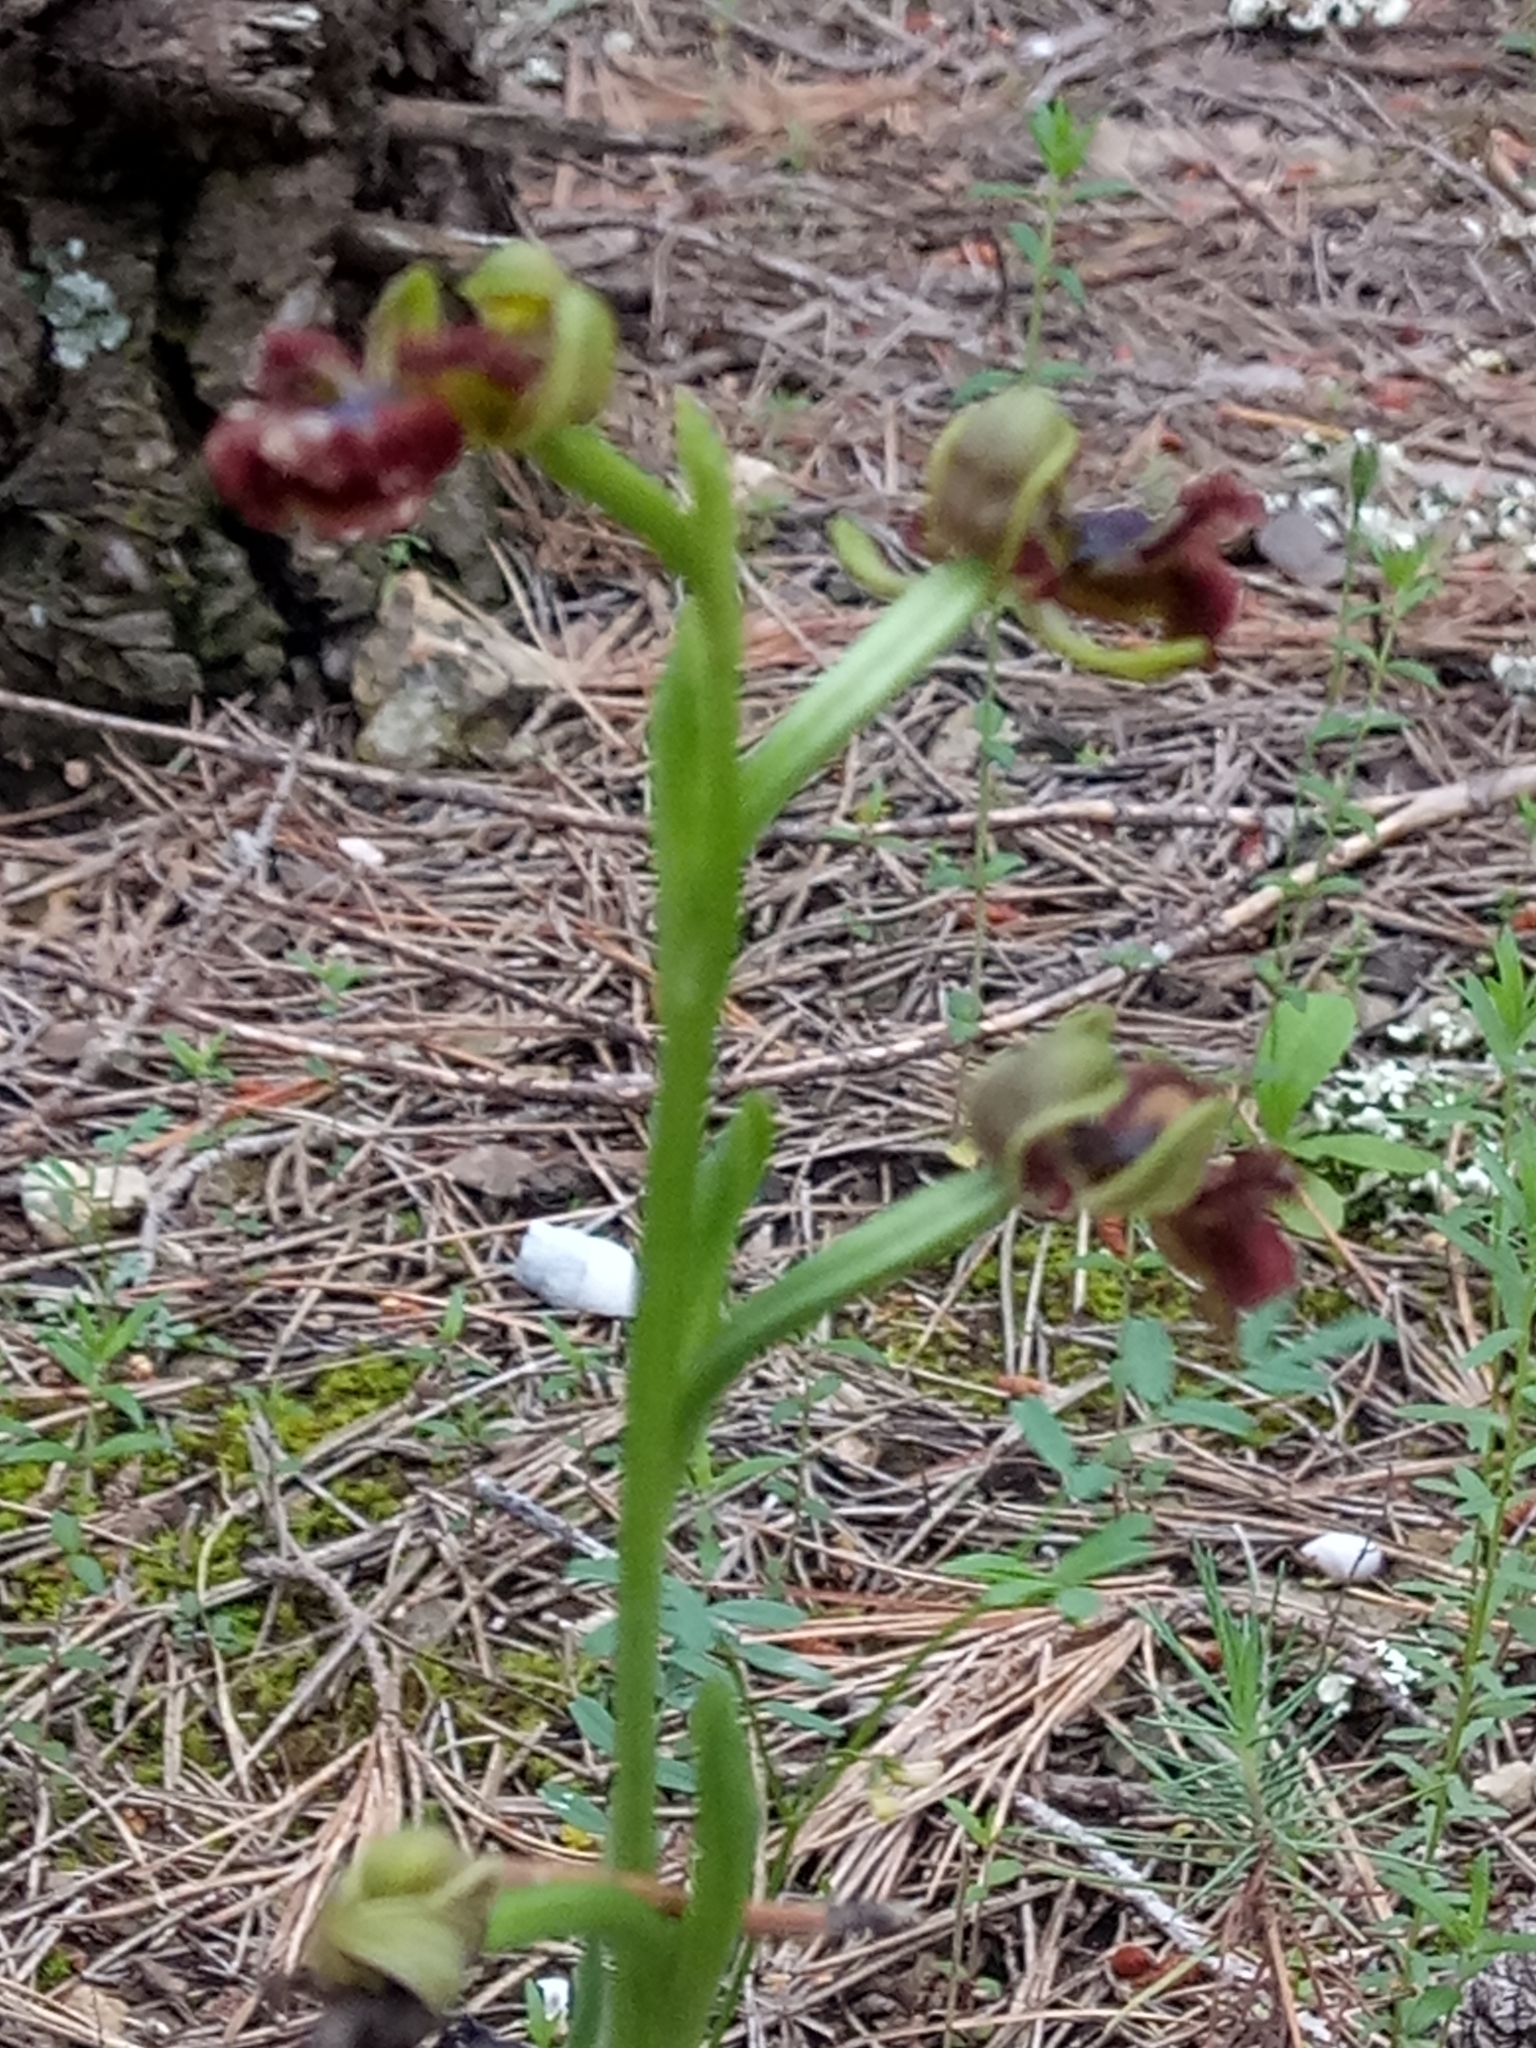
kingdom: Plantae
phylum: Tracheophyta
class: Liliopsida
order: Asparagales
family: Orchidaceae
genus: Ophrys
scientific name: Ophrys speculum
